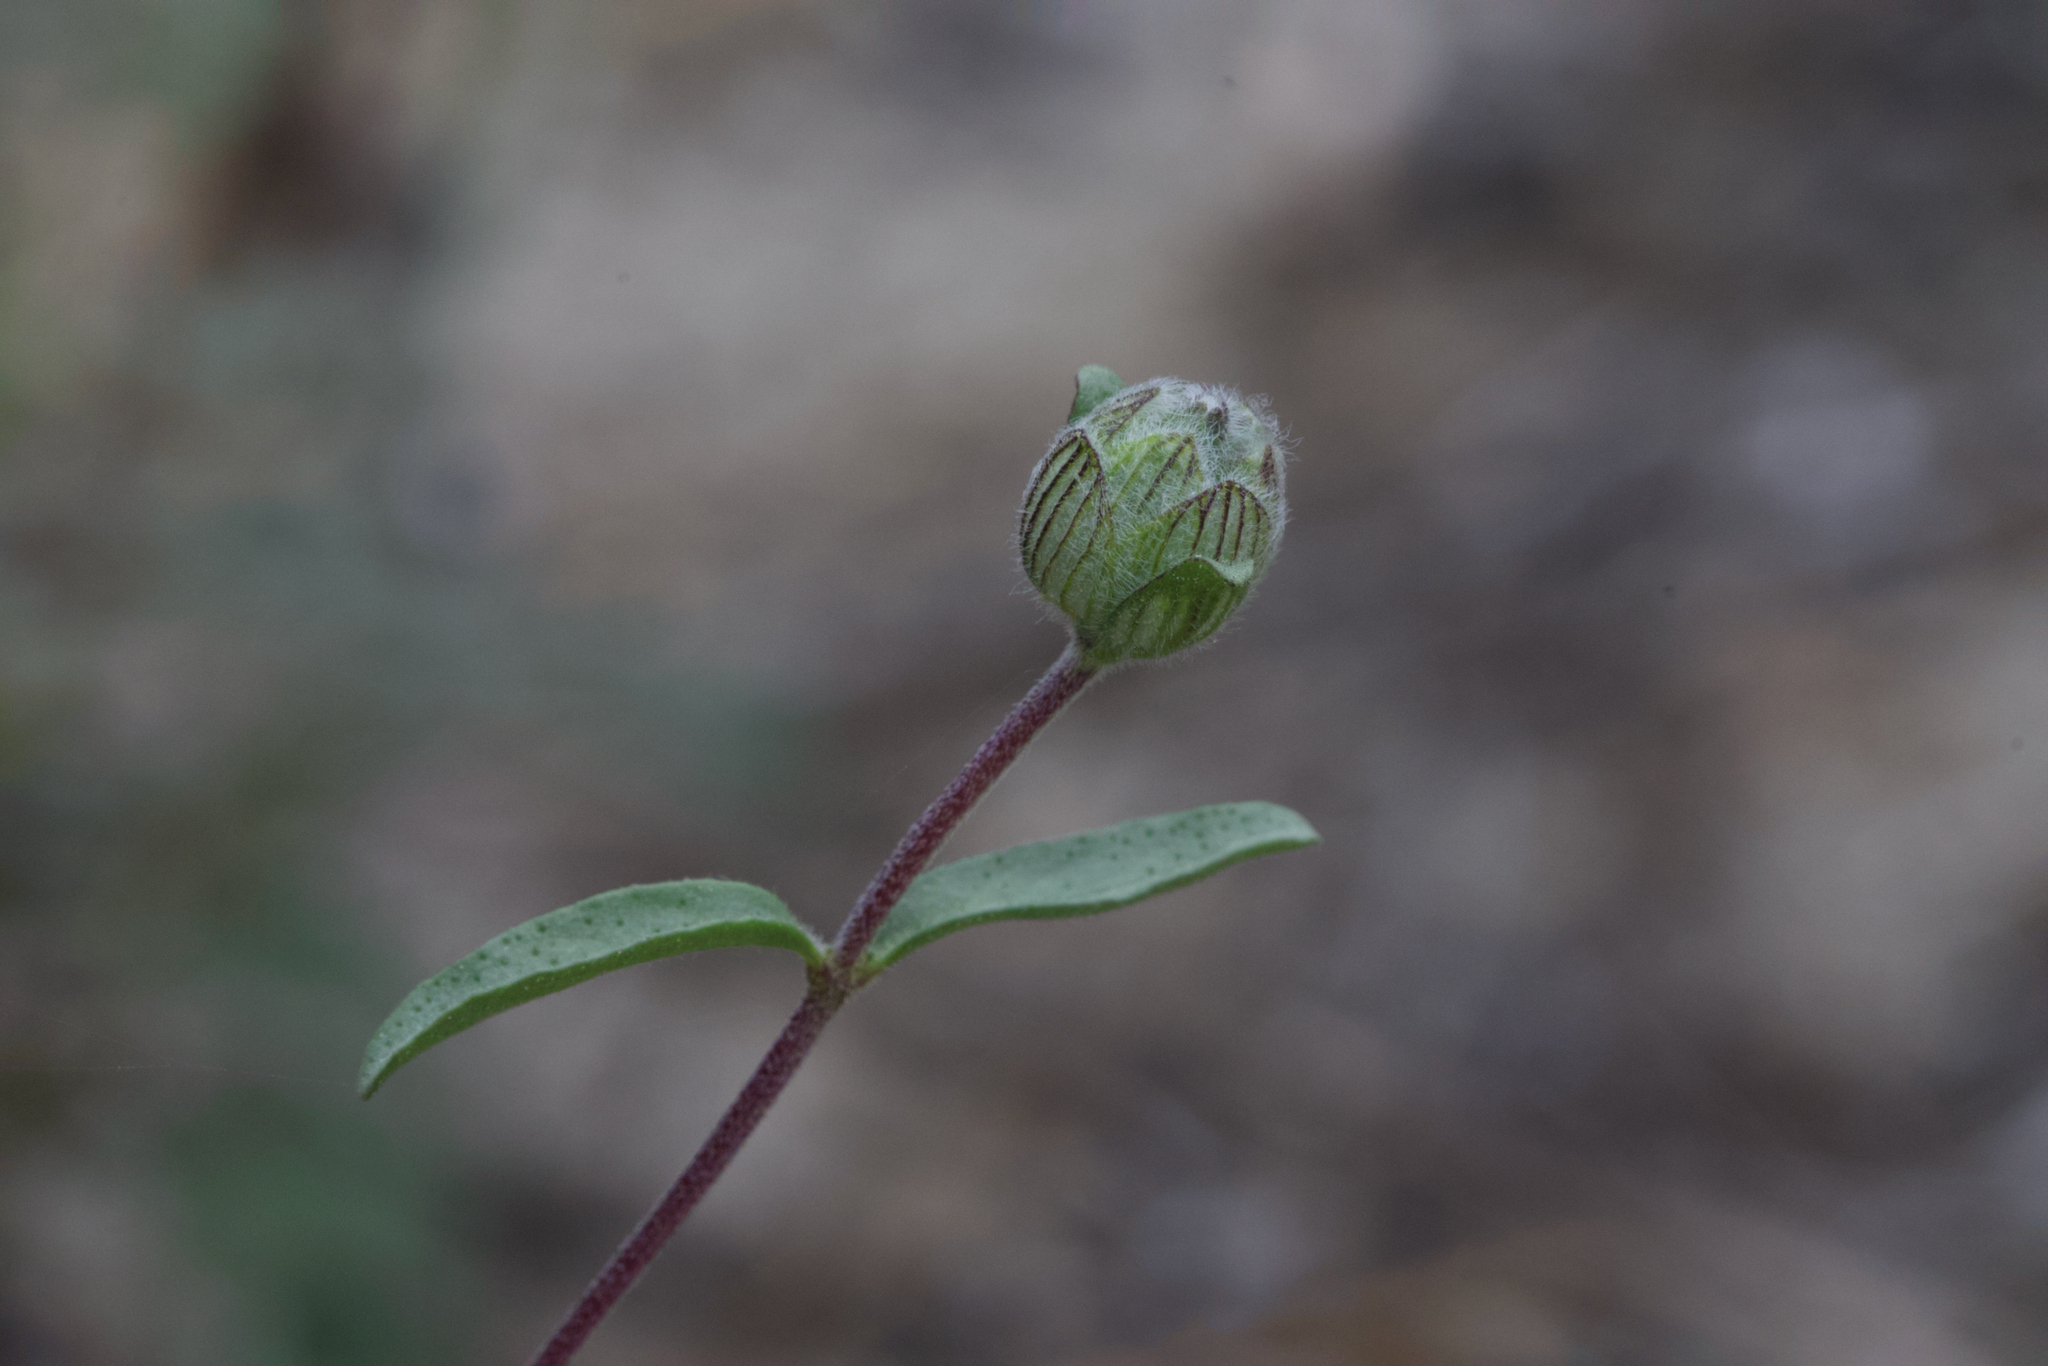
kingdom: Plantae
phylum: Tracheophyta
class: Magnoliopsida
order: Lamiales
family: Lamiaceae
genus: Monardella
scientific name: Monardella sinuata
